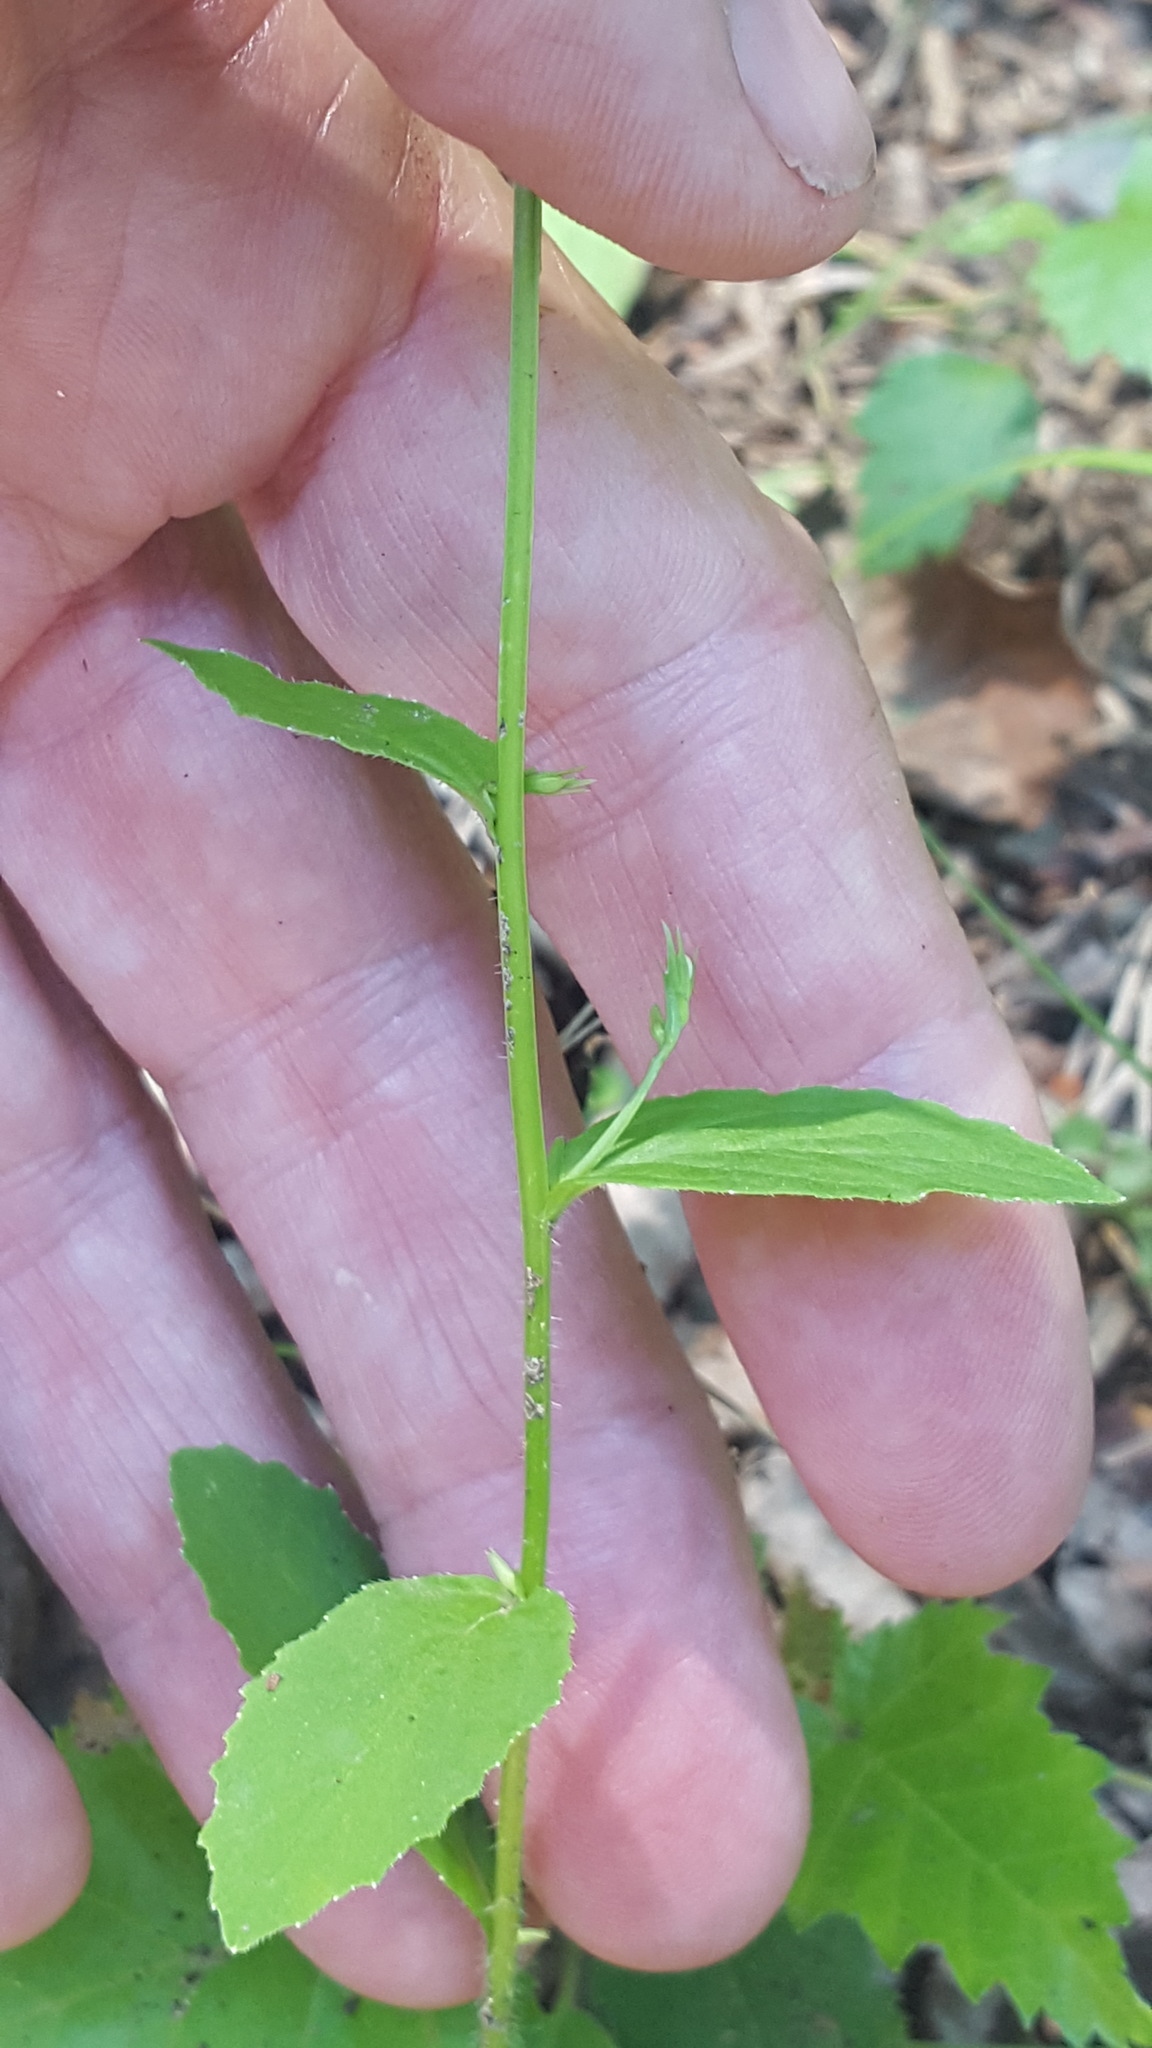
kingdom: Plantae
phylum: Tracheophyta
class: Magnoliopsida
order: Asterales
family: Campanulaceae
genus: Lobelia
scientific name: Lobelia inflata
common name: Indian tobacco
